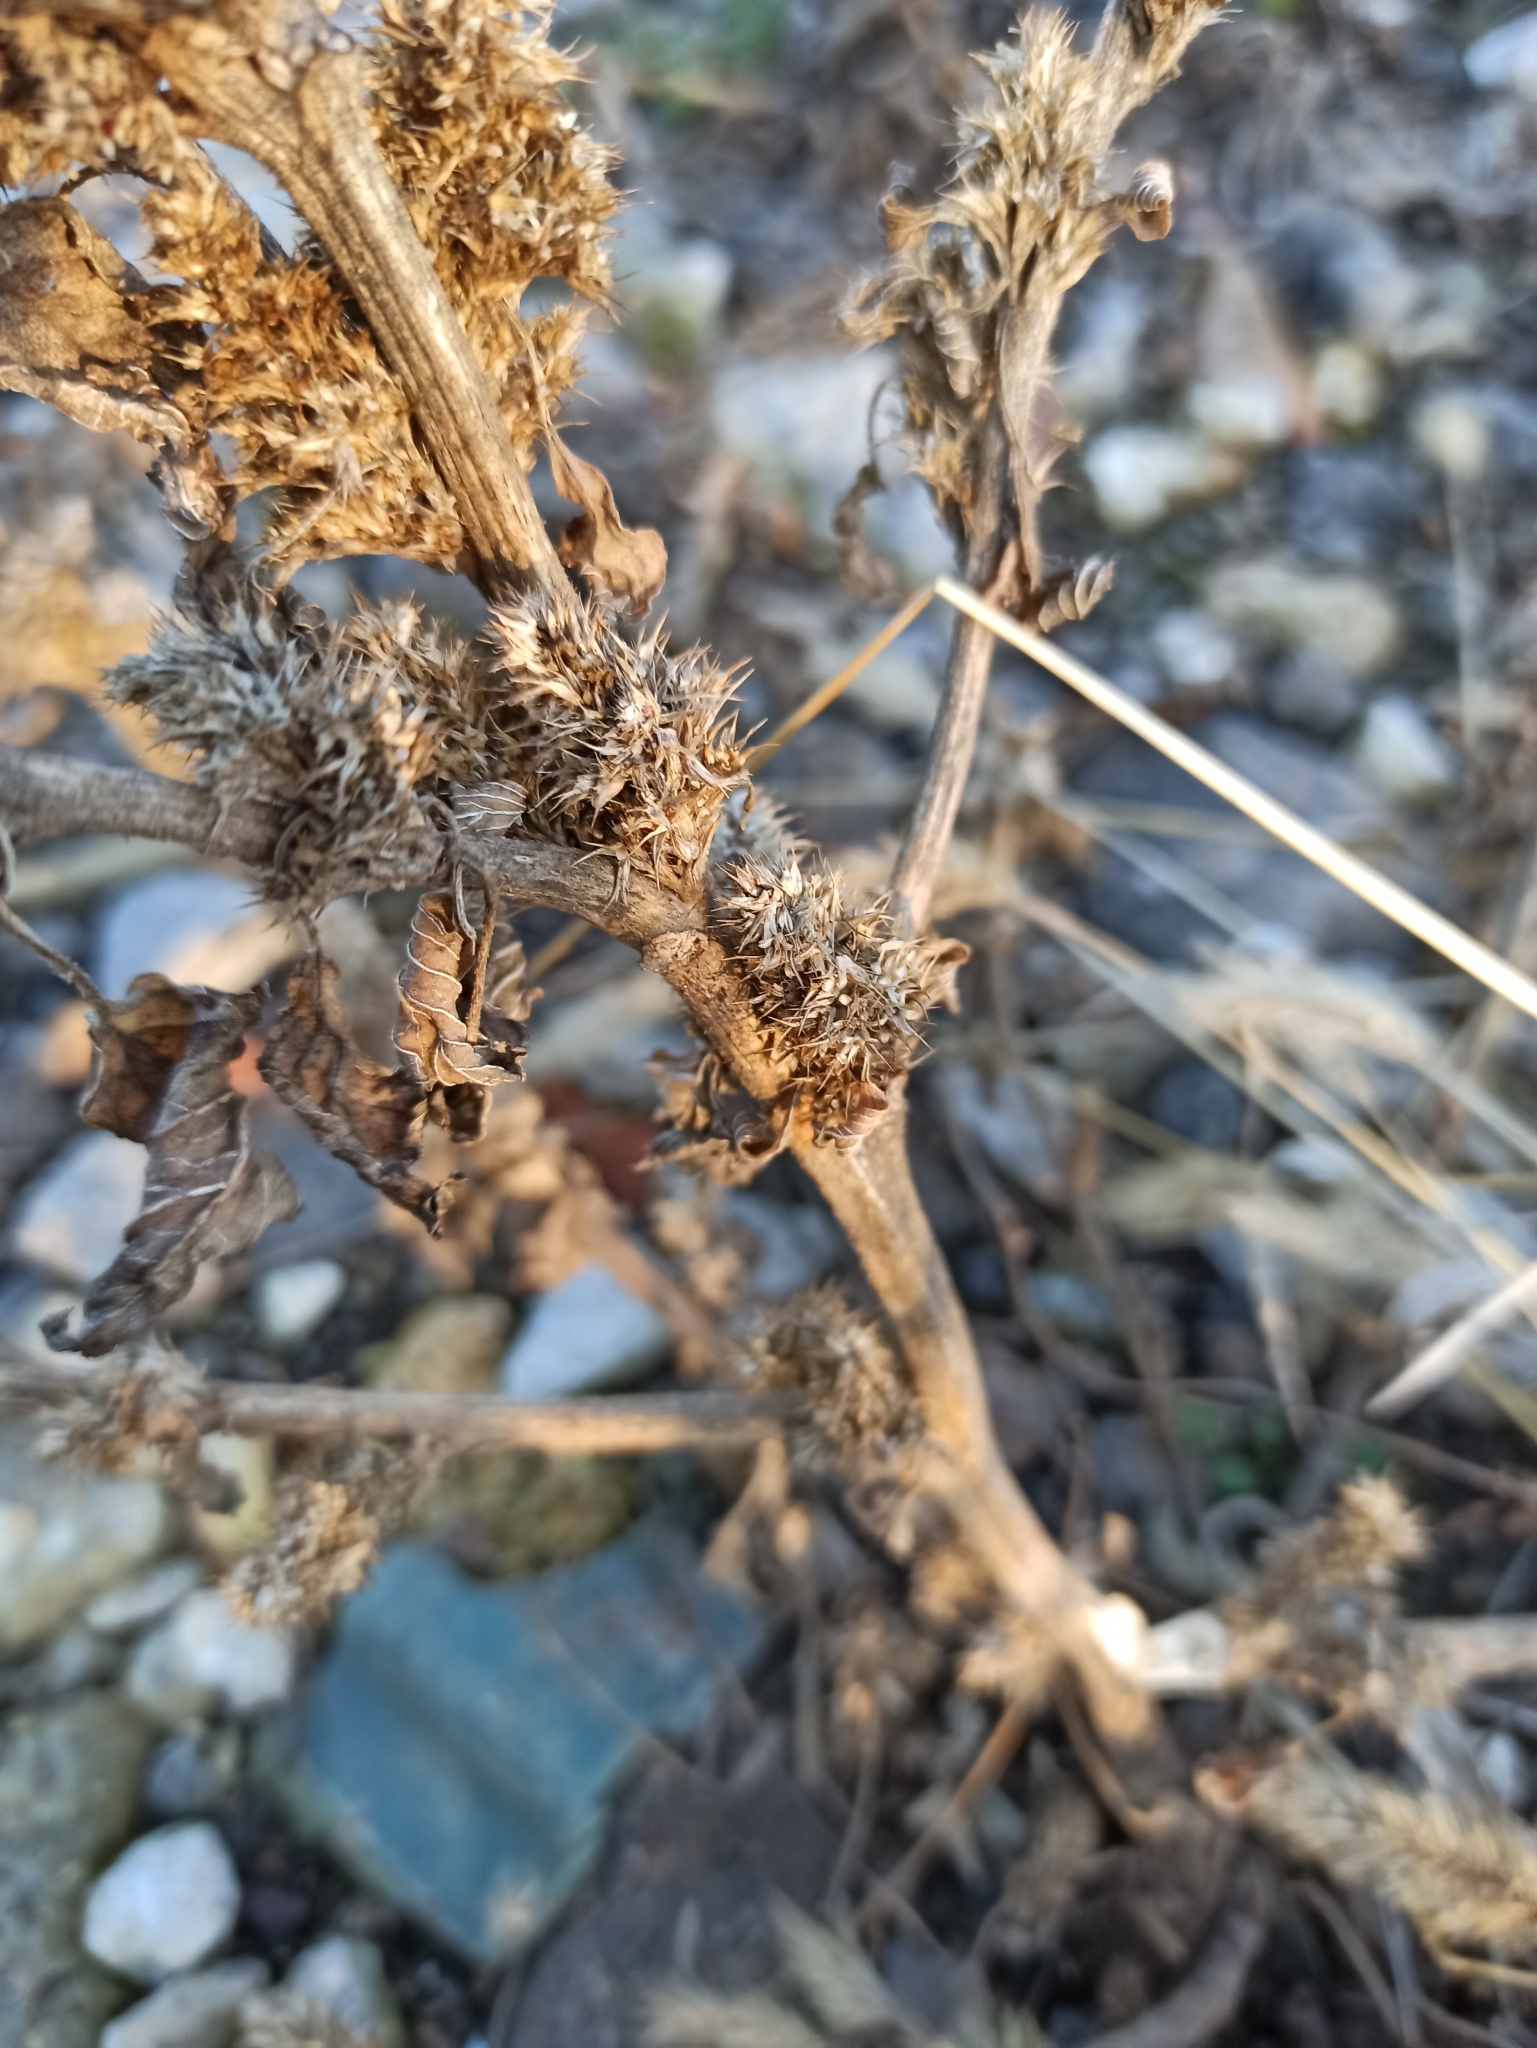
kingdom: Plantae
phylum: Tracheophyta
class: Magnoliopsida
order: Caryophyllales
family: Amaranthaceae
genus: Amaranthus
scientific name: Amaranthus retroflexus
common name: Redroot amaranth
